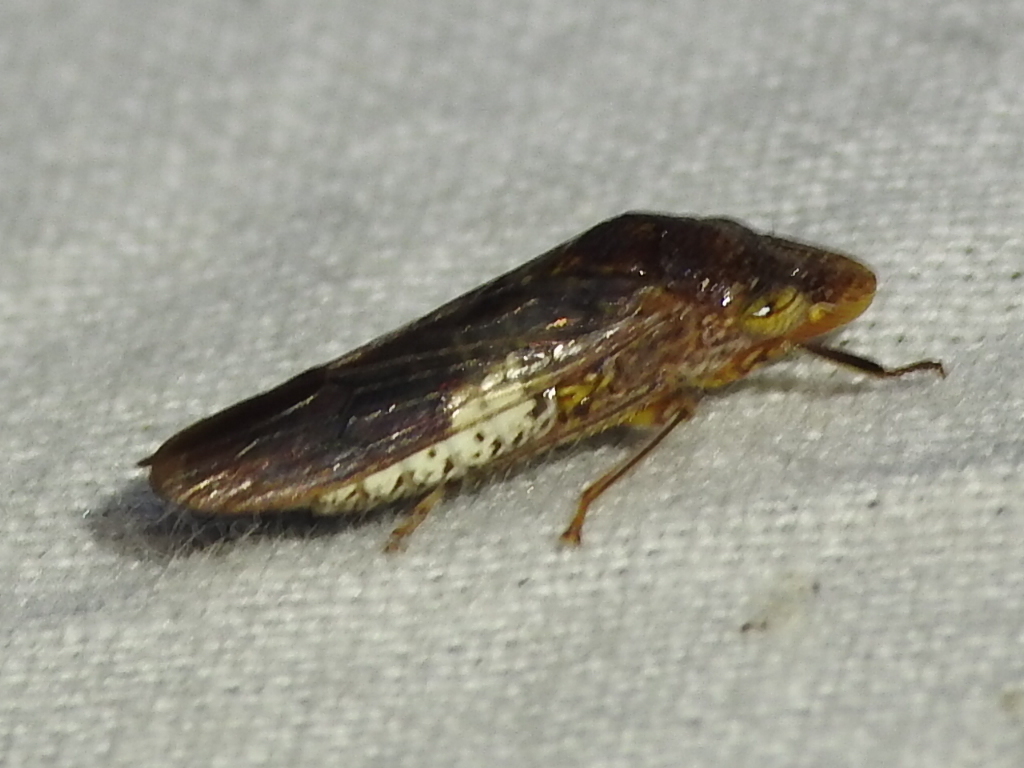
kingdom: Animalia
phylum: Arthropoda
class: Insecta
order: Hemiptera
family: Cicadellidae
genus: Homalodisca
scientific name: Homalodisca vitripennis
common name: Glassy-winged sharpshooter
